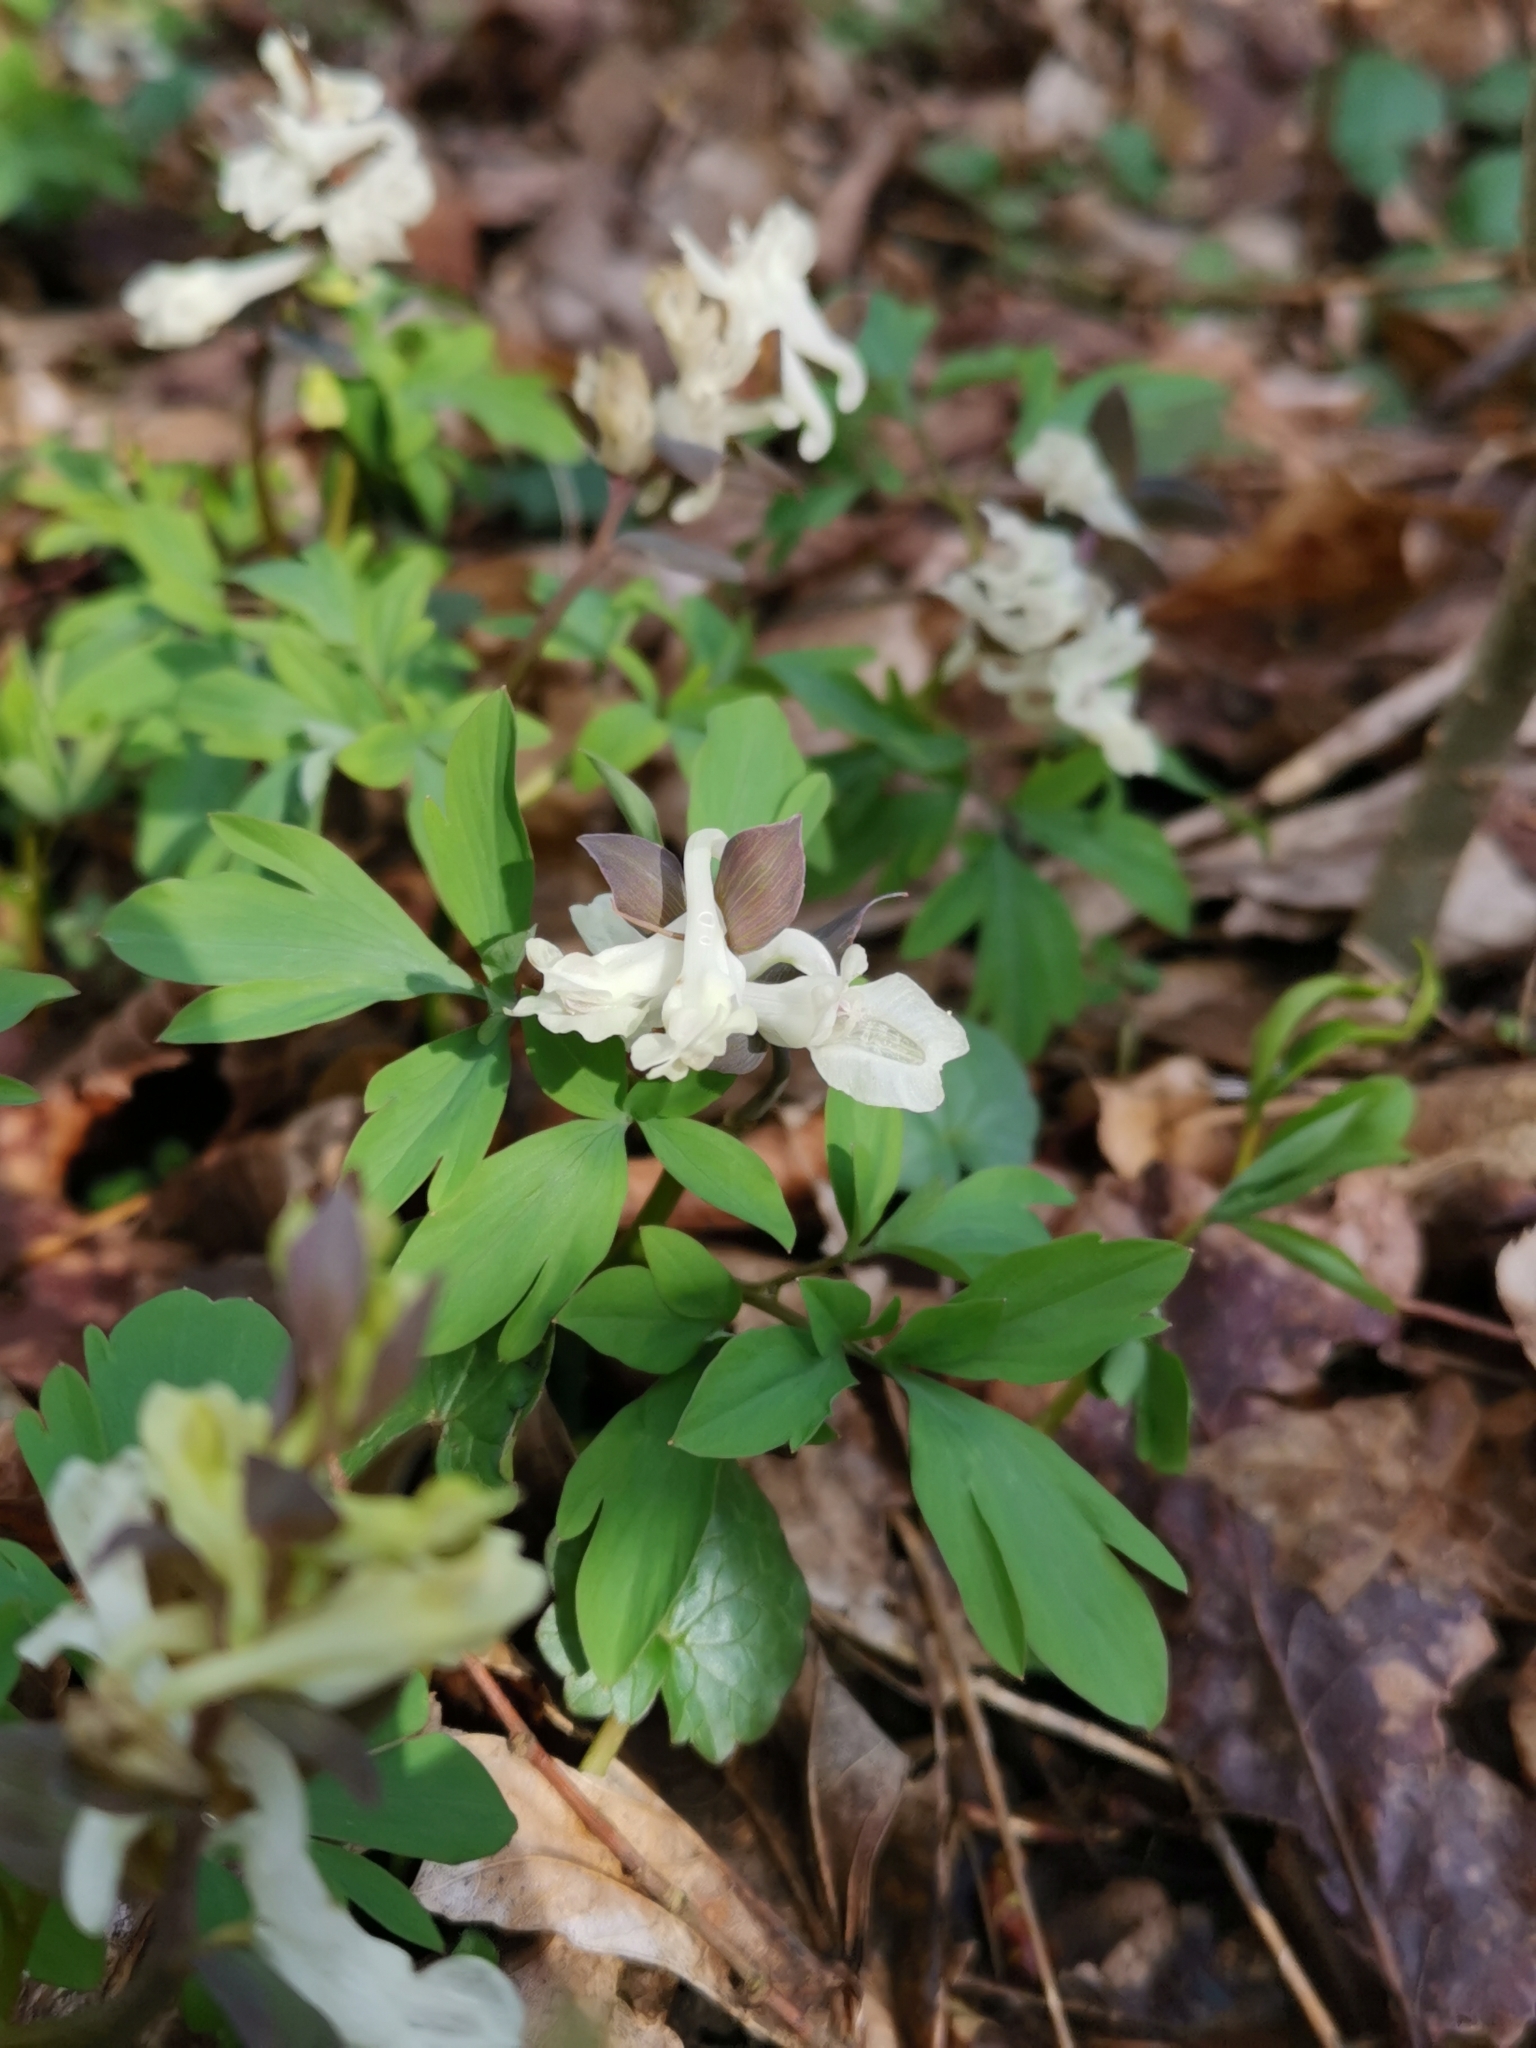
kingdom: Plantae
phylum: Tracheophyta
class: Magnoliopsida
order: Ranunculales
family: Papaveraceae
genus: Corydalis
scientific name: Corydalis cava
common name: Hollowroot
